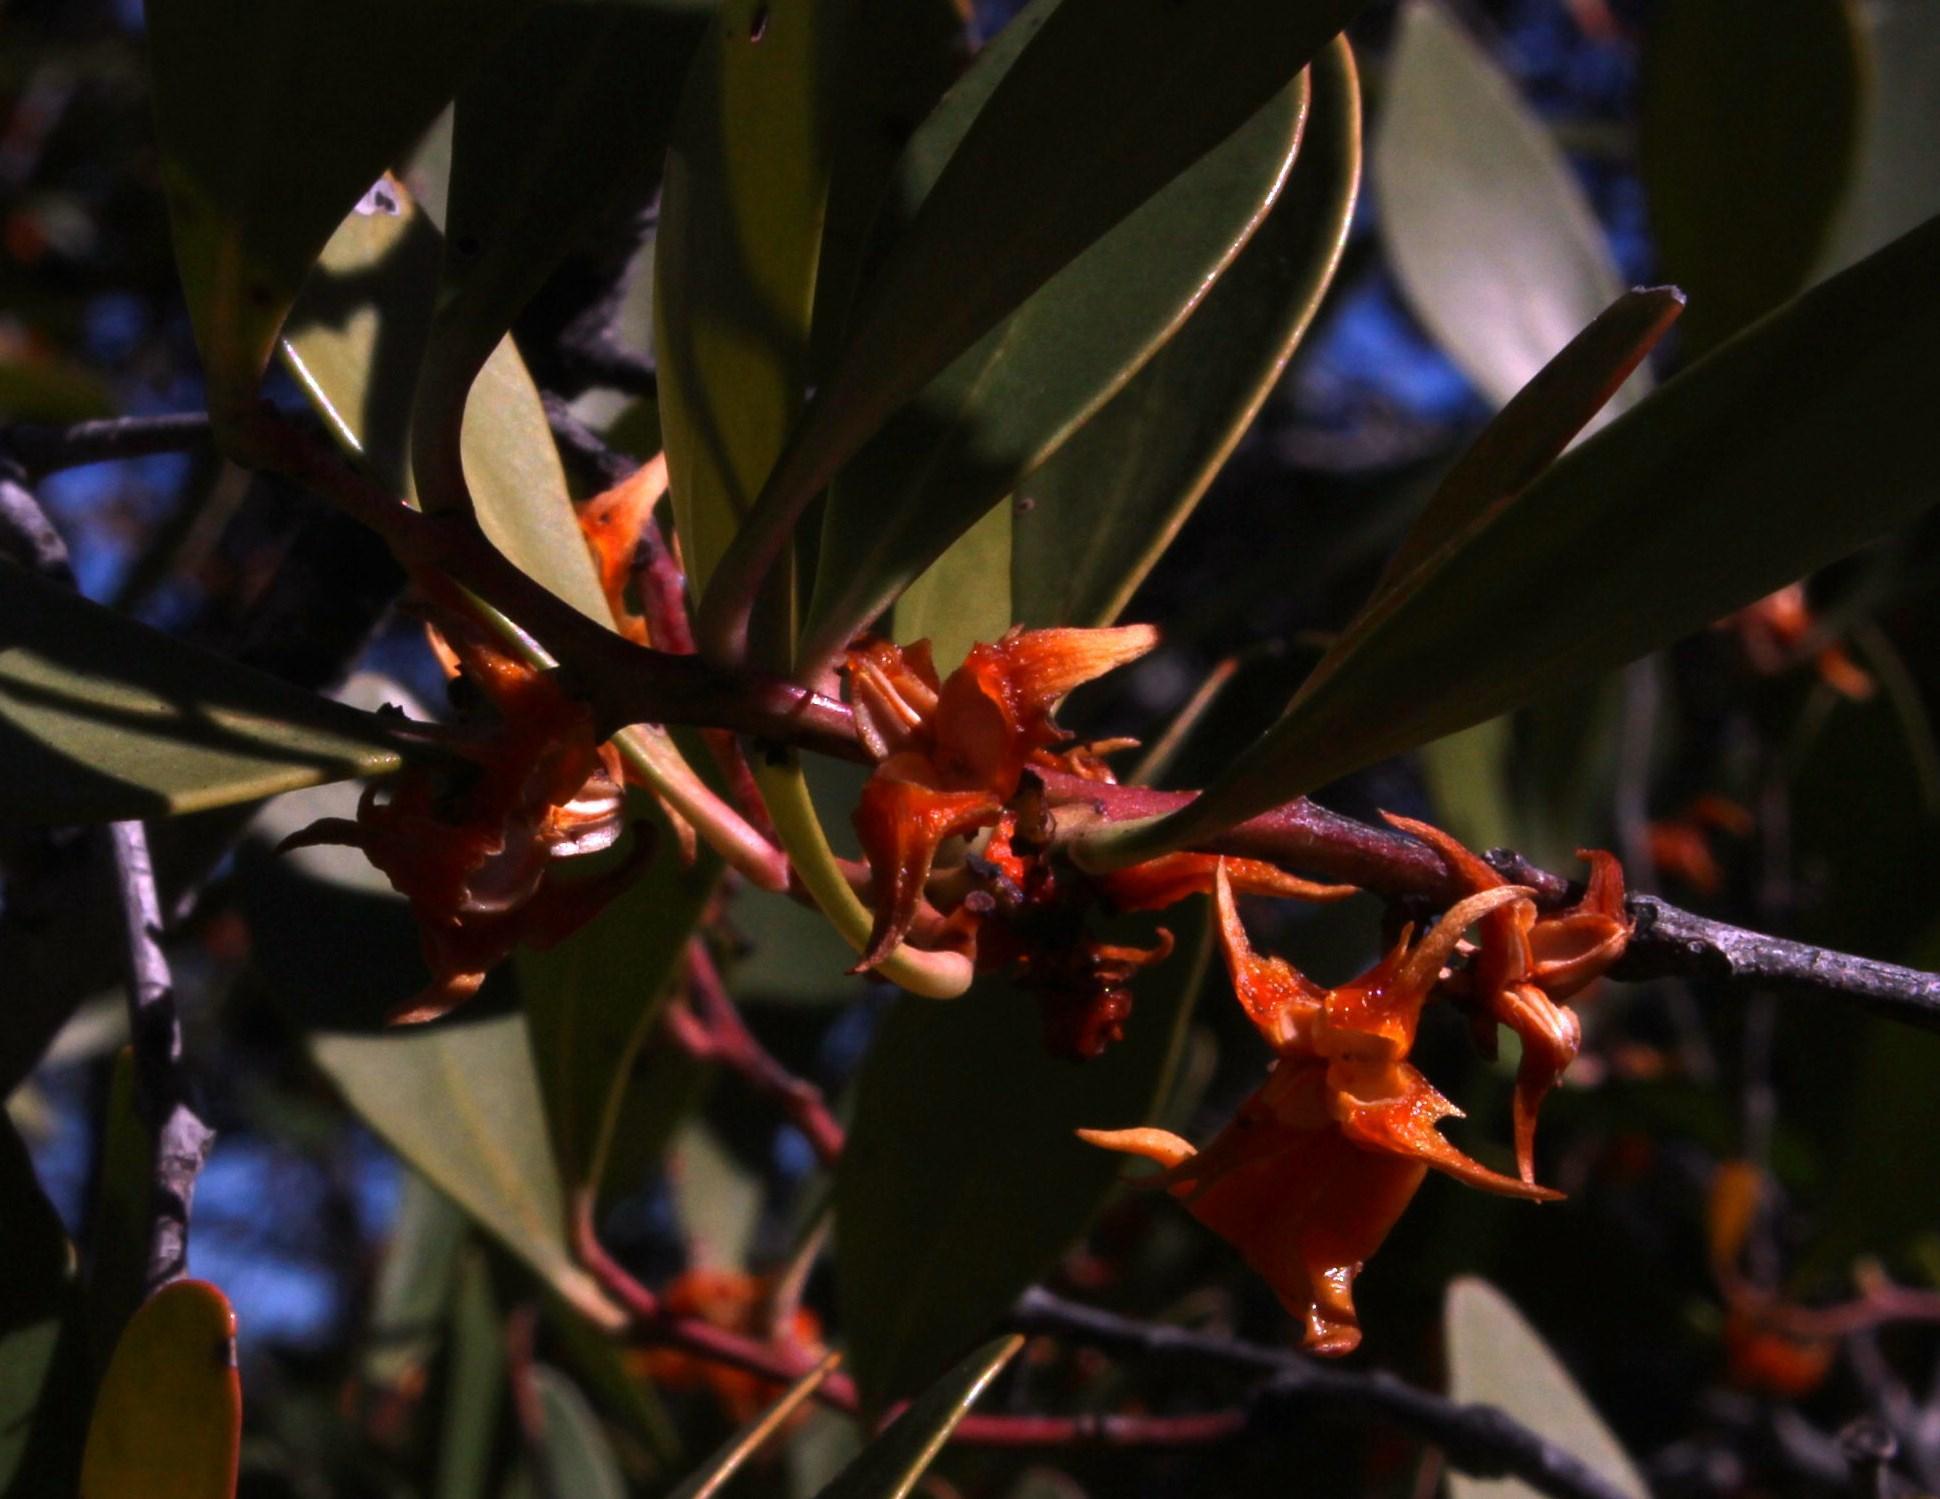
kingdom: Plantae
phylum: Tracheophyta
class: Magnoliopsida
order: Celastrales
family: Celastraceae
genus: Pterocelastrus
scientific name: Pterocelastrus tricuspidatus
